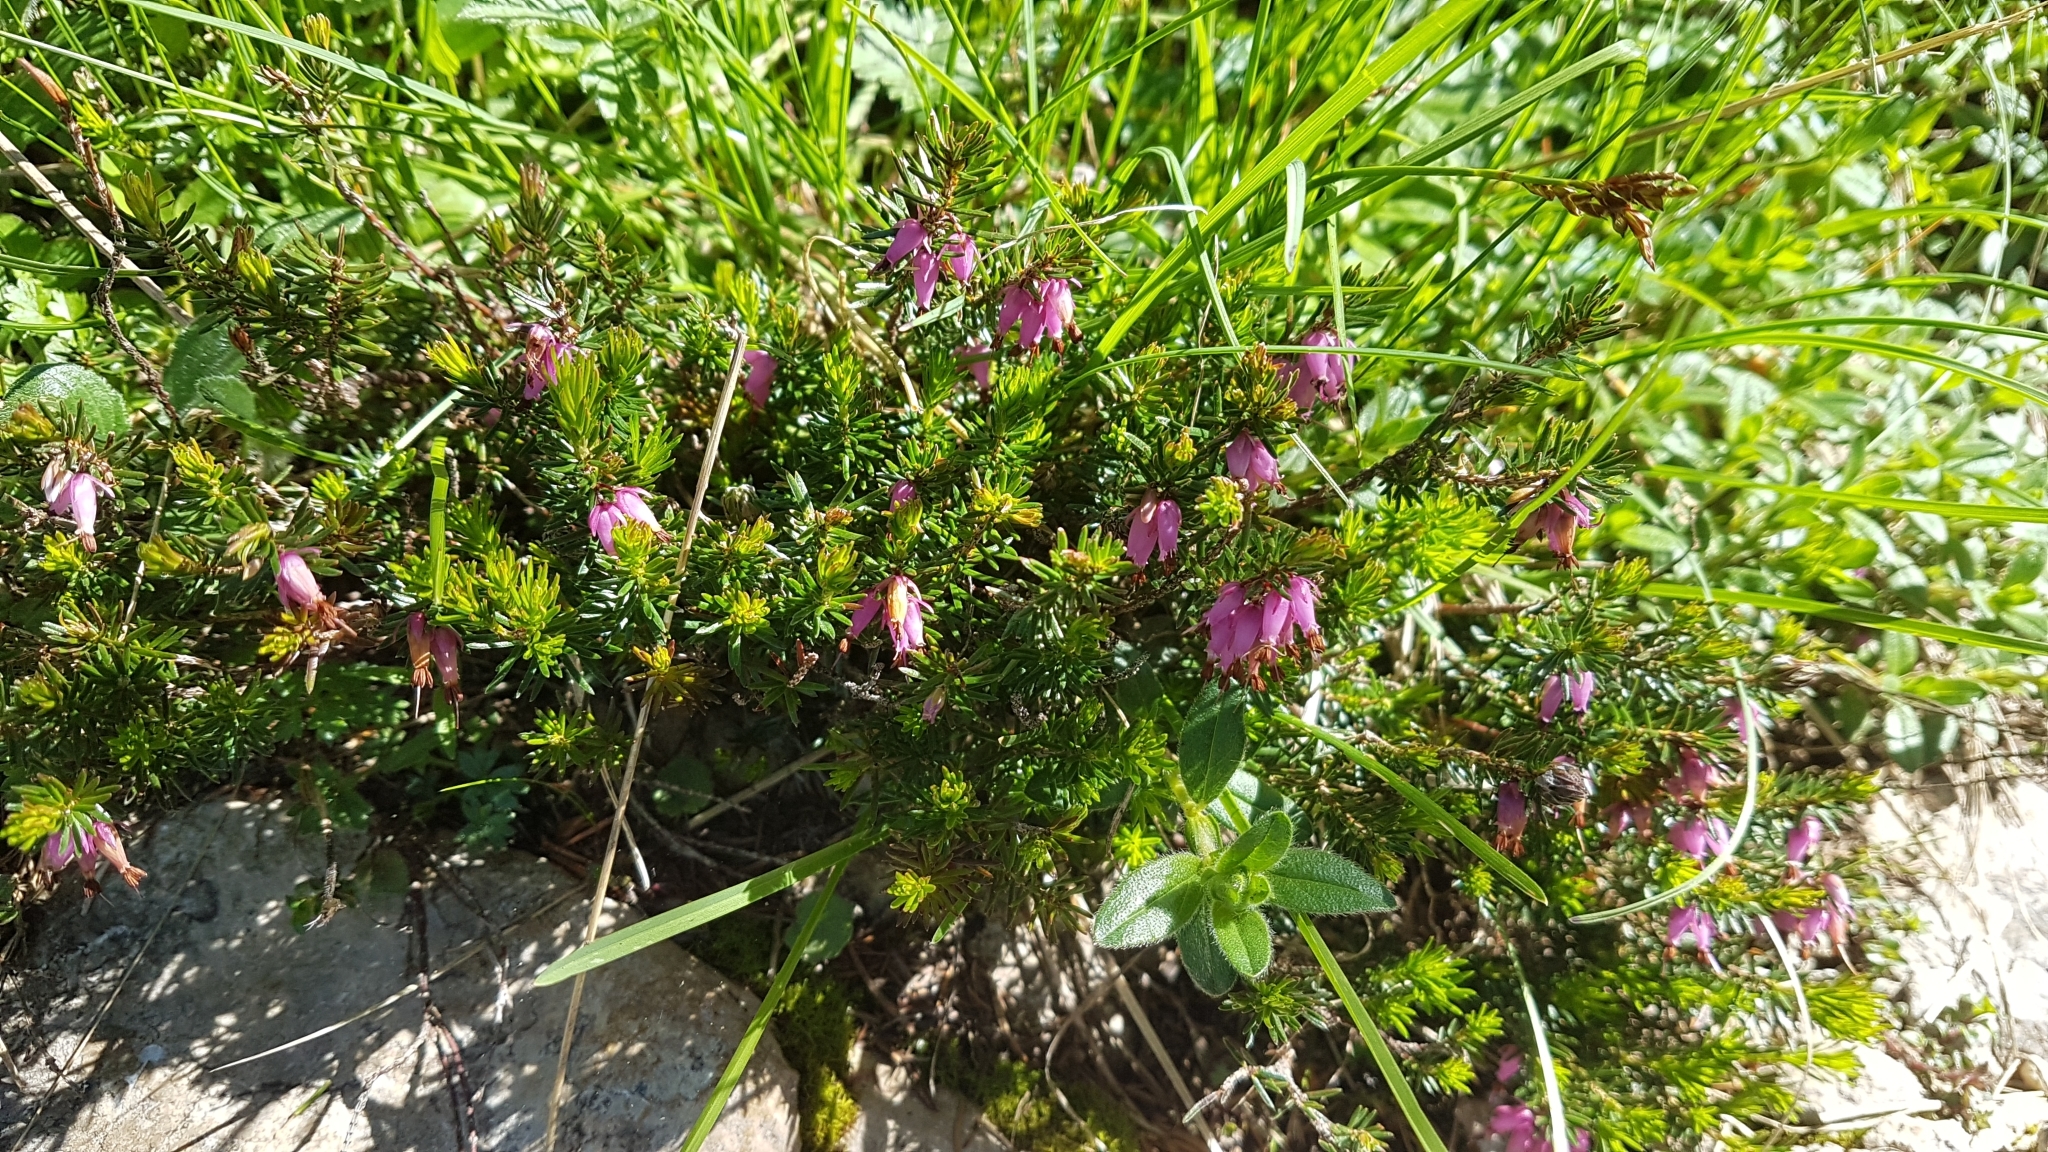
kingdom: Plantae
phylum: Tracheophyta
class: Magnoliopsida
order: Ericales
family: Ericaceae
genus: Erica
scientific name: Erica carnea
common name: Winter heath
